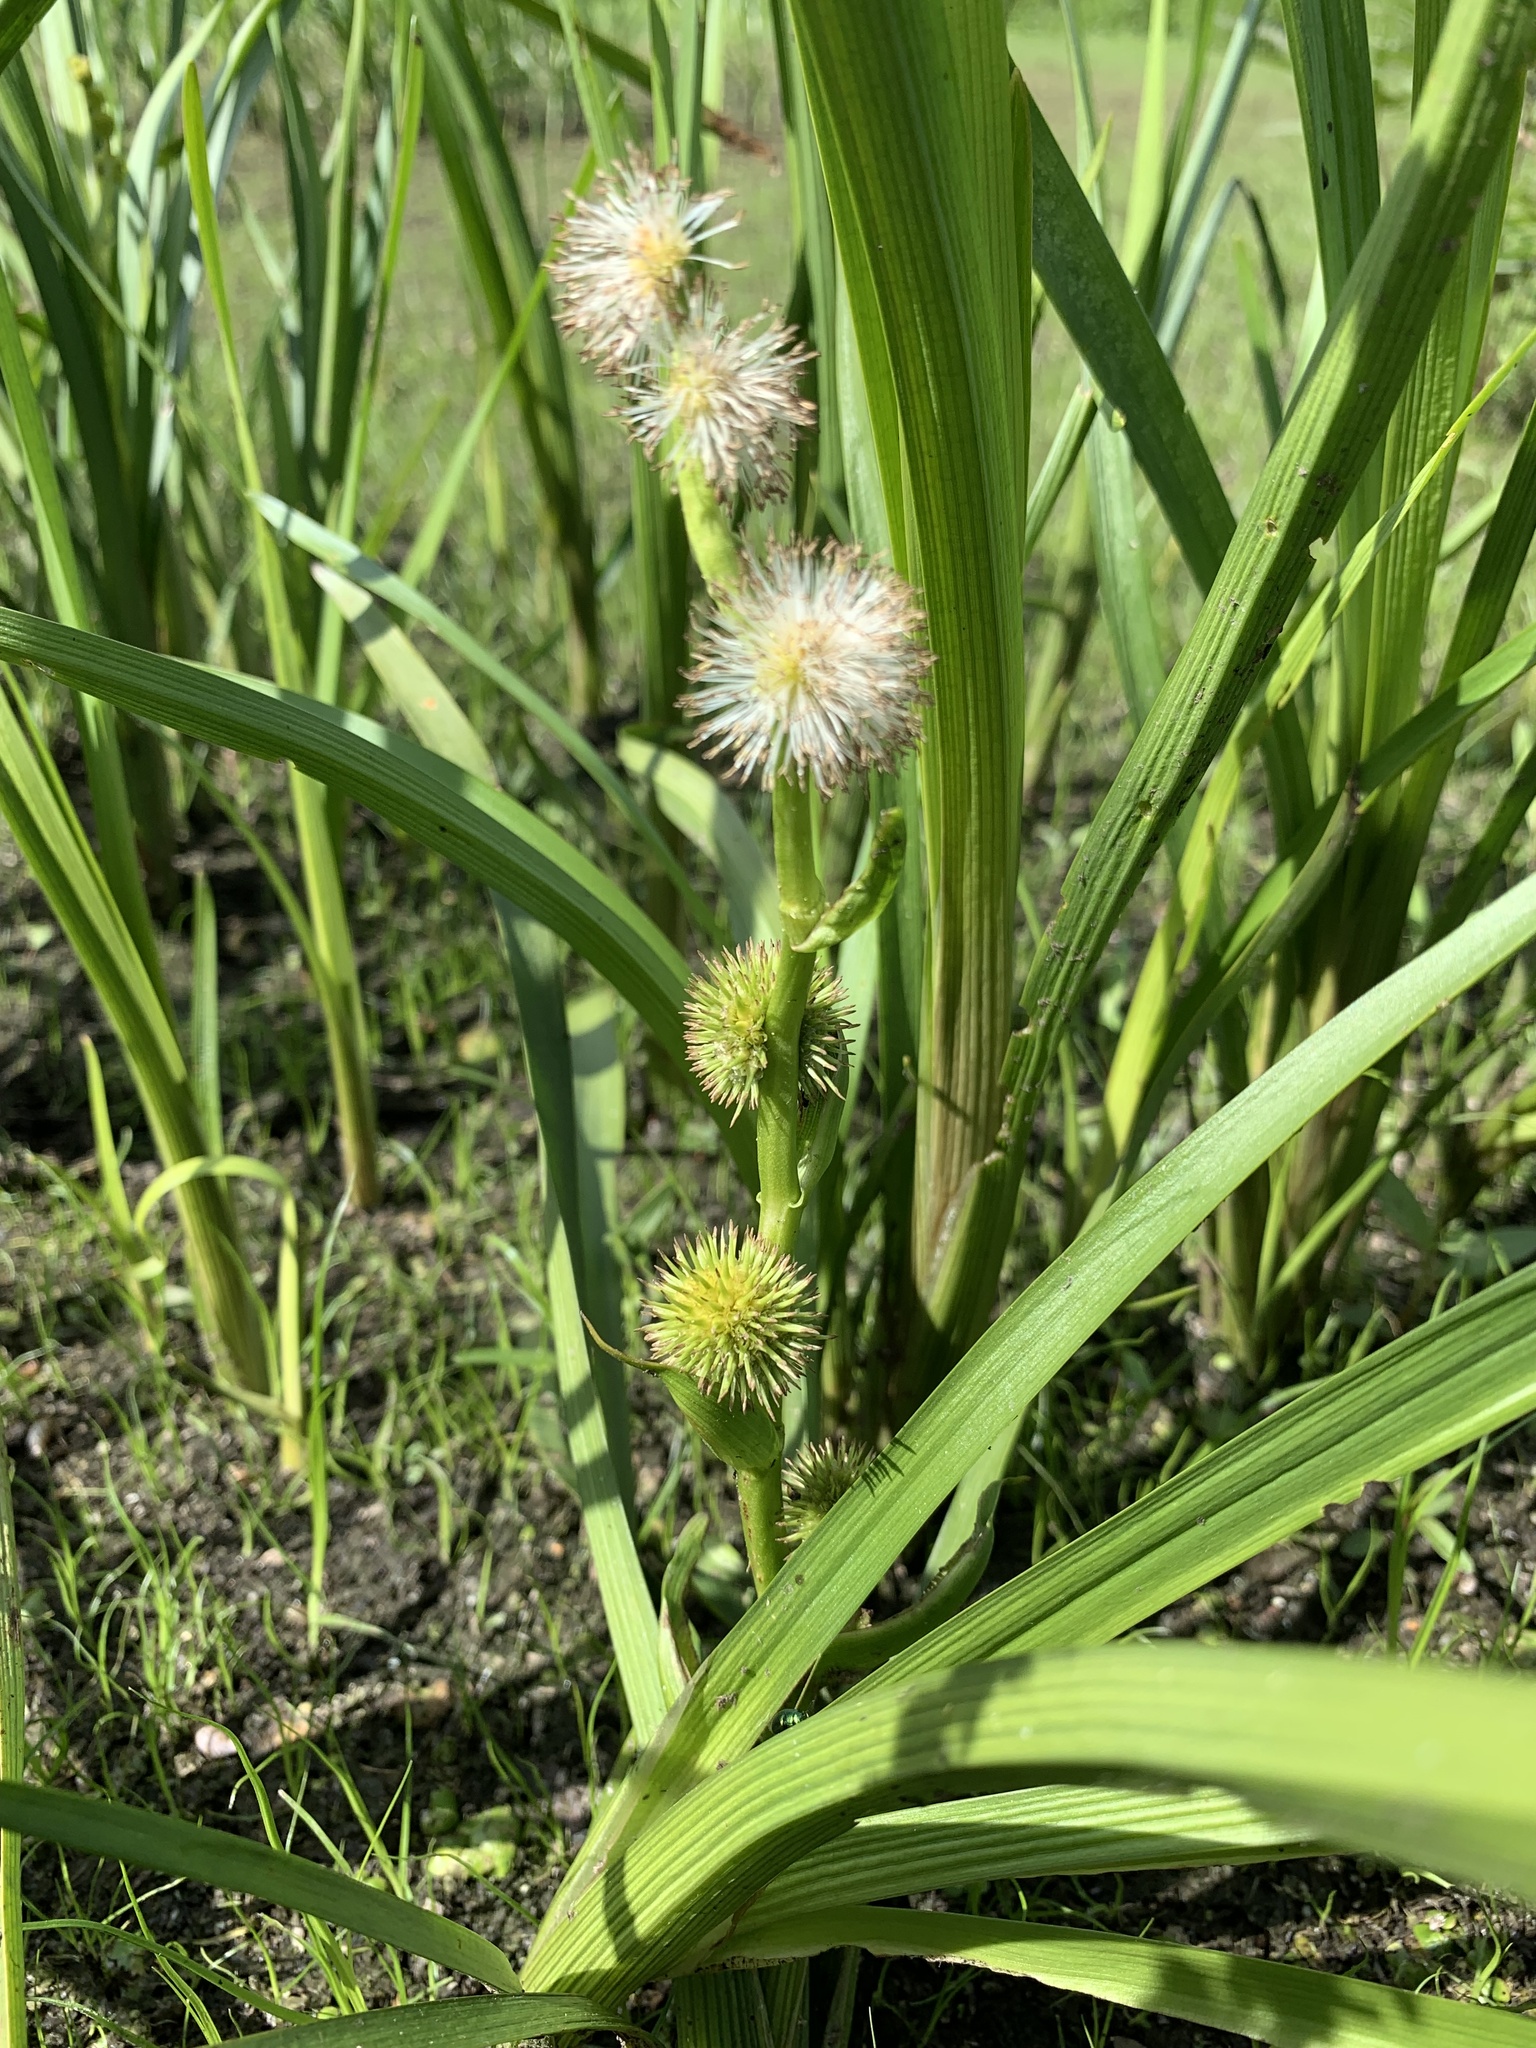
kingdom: Plantae
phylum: Tracheophyta
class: Liliopsida
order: Poales
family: Typhaceae
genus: Sparganium
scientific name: Sparganium emersum
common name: Unbranched bur-reed
